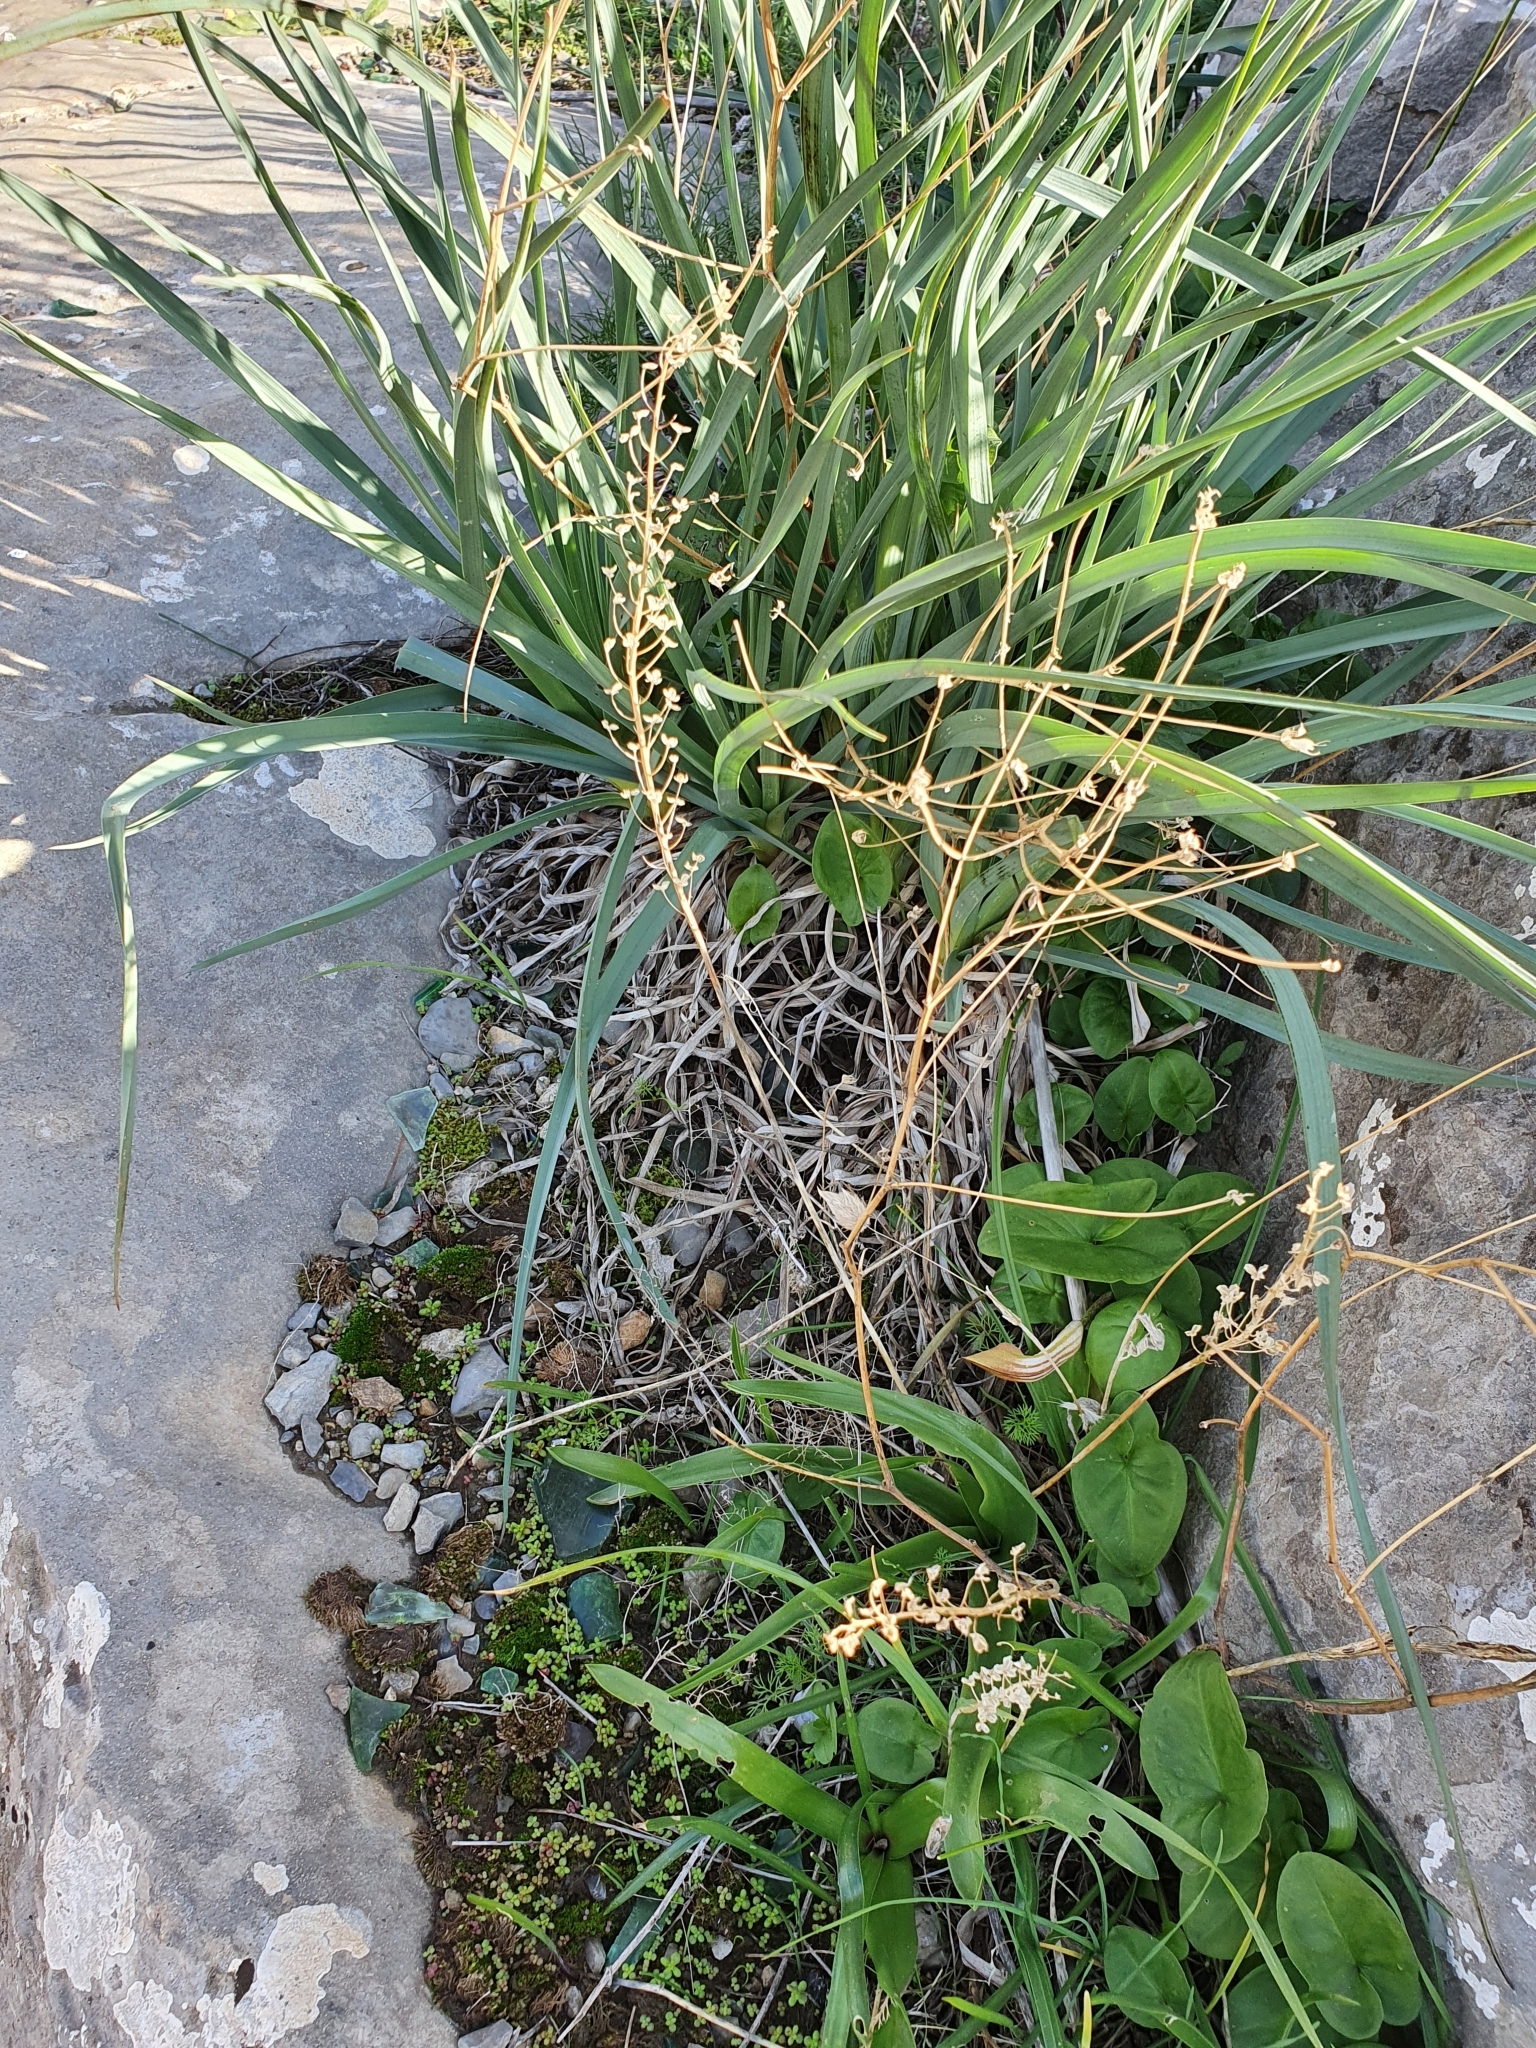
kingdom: Plantae
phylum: Tracheophyta
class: Liliopsida
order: Asparagales
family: Asparagaceae
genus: Prospero
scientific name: Prospero obtusifolium
